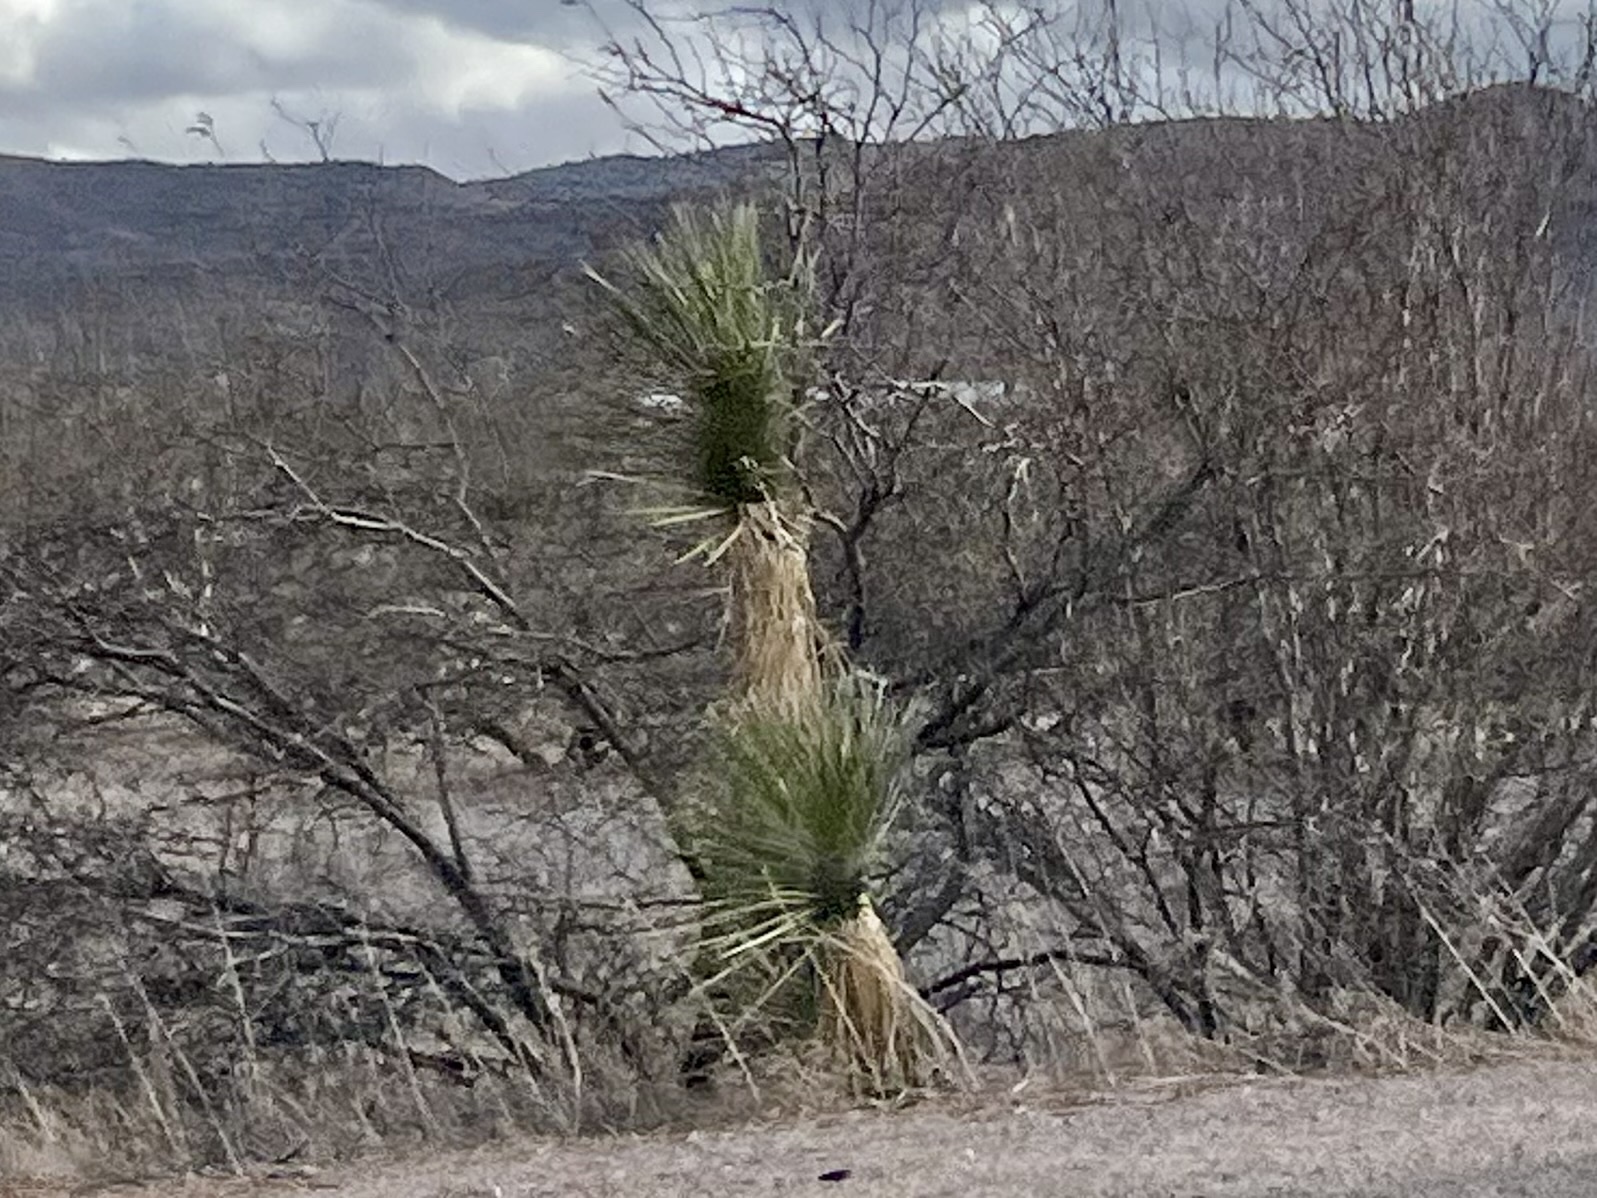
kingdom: Plantae
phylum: Tracheophyta
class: Liliopsida
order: Asparagales
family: Asparagaceae
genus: Yucca
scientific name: Yucca elata
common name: Palmella
